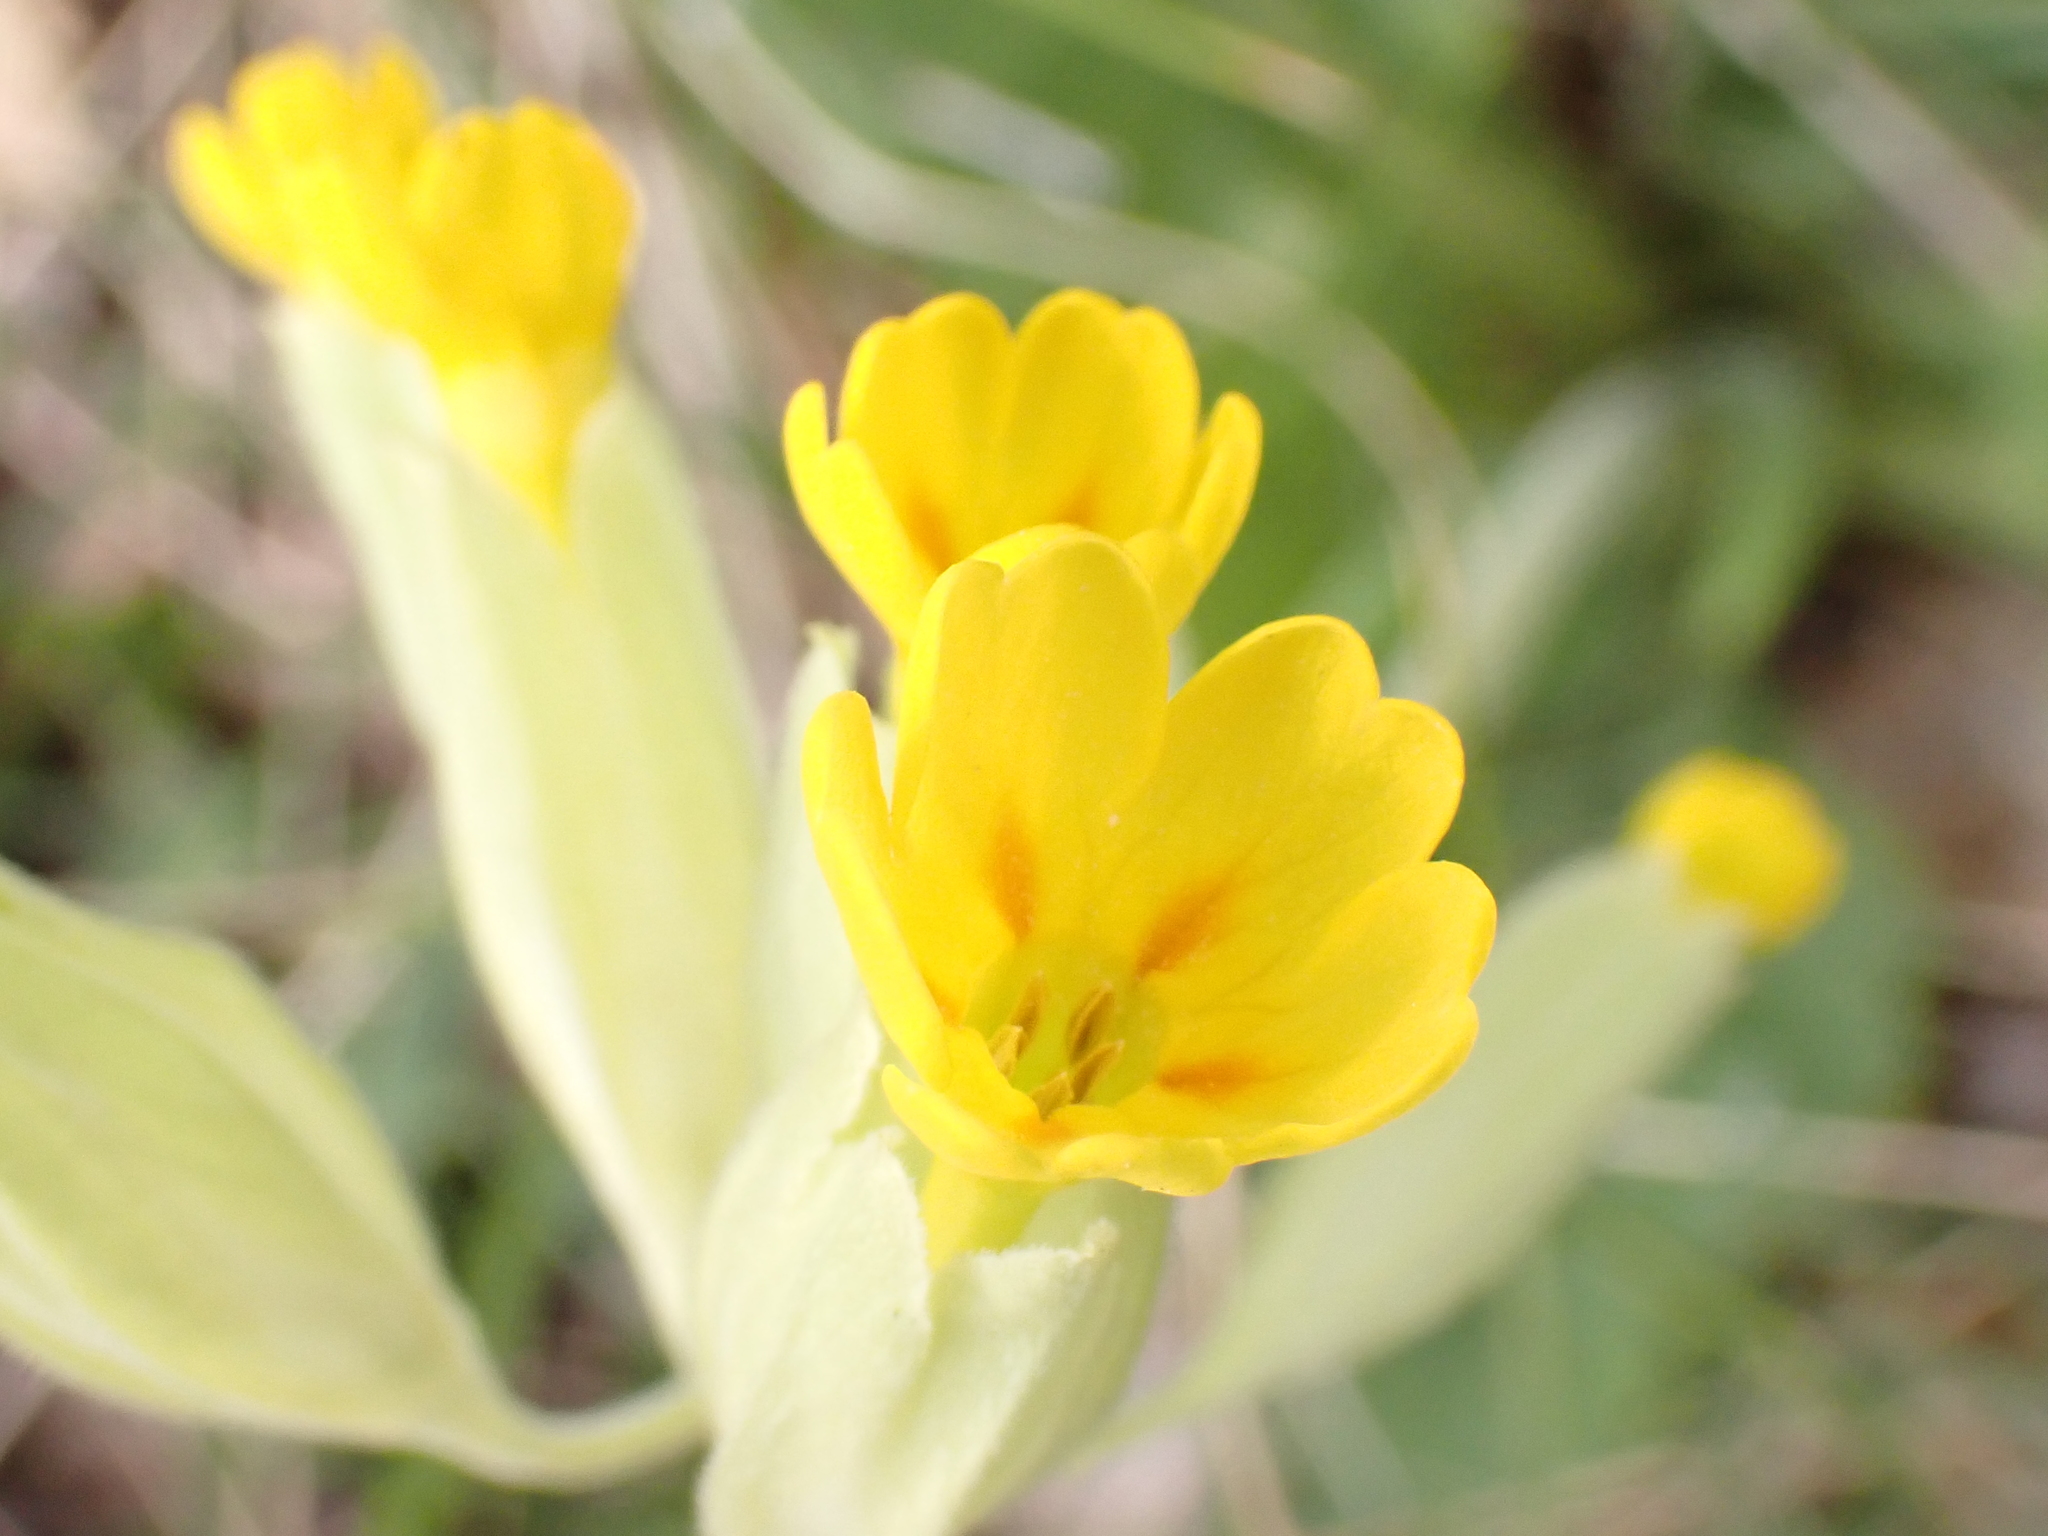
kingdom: Plantae
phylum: Tracheophyta
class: Magnoliopsida
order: Ericales
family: Primulaceae
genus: Primula
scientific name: Primula veris
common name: Cowslip
